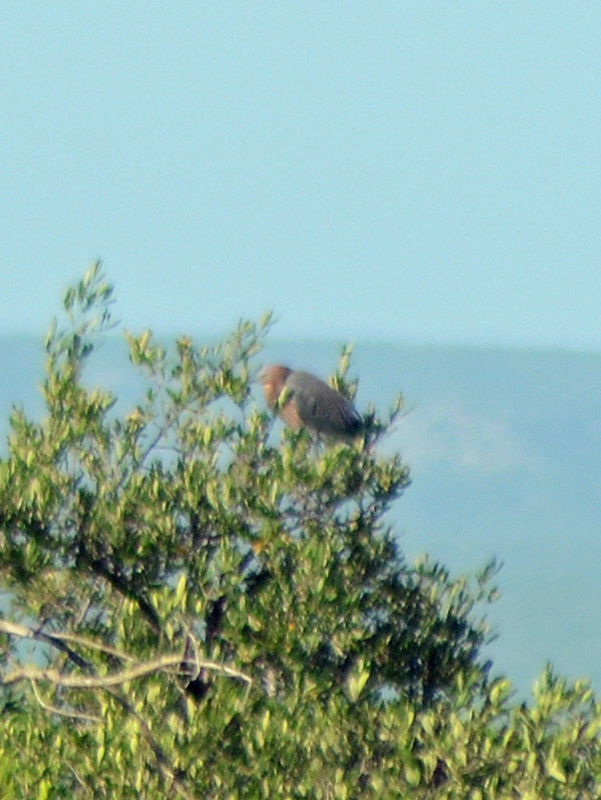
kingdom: Animalia
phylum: Chordata
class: Aves
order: Pelecaniformes
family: Ardeidae
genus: Egretta
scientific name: Egretta rufescens
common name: Reddish egret
